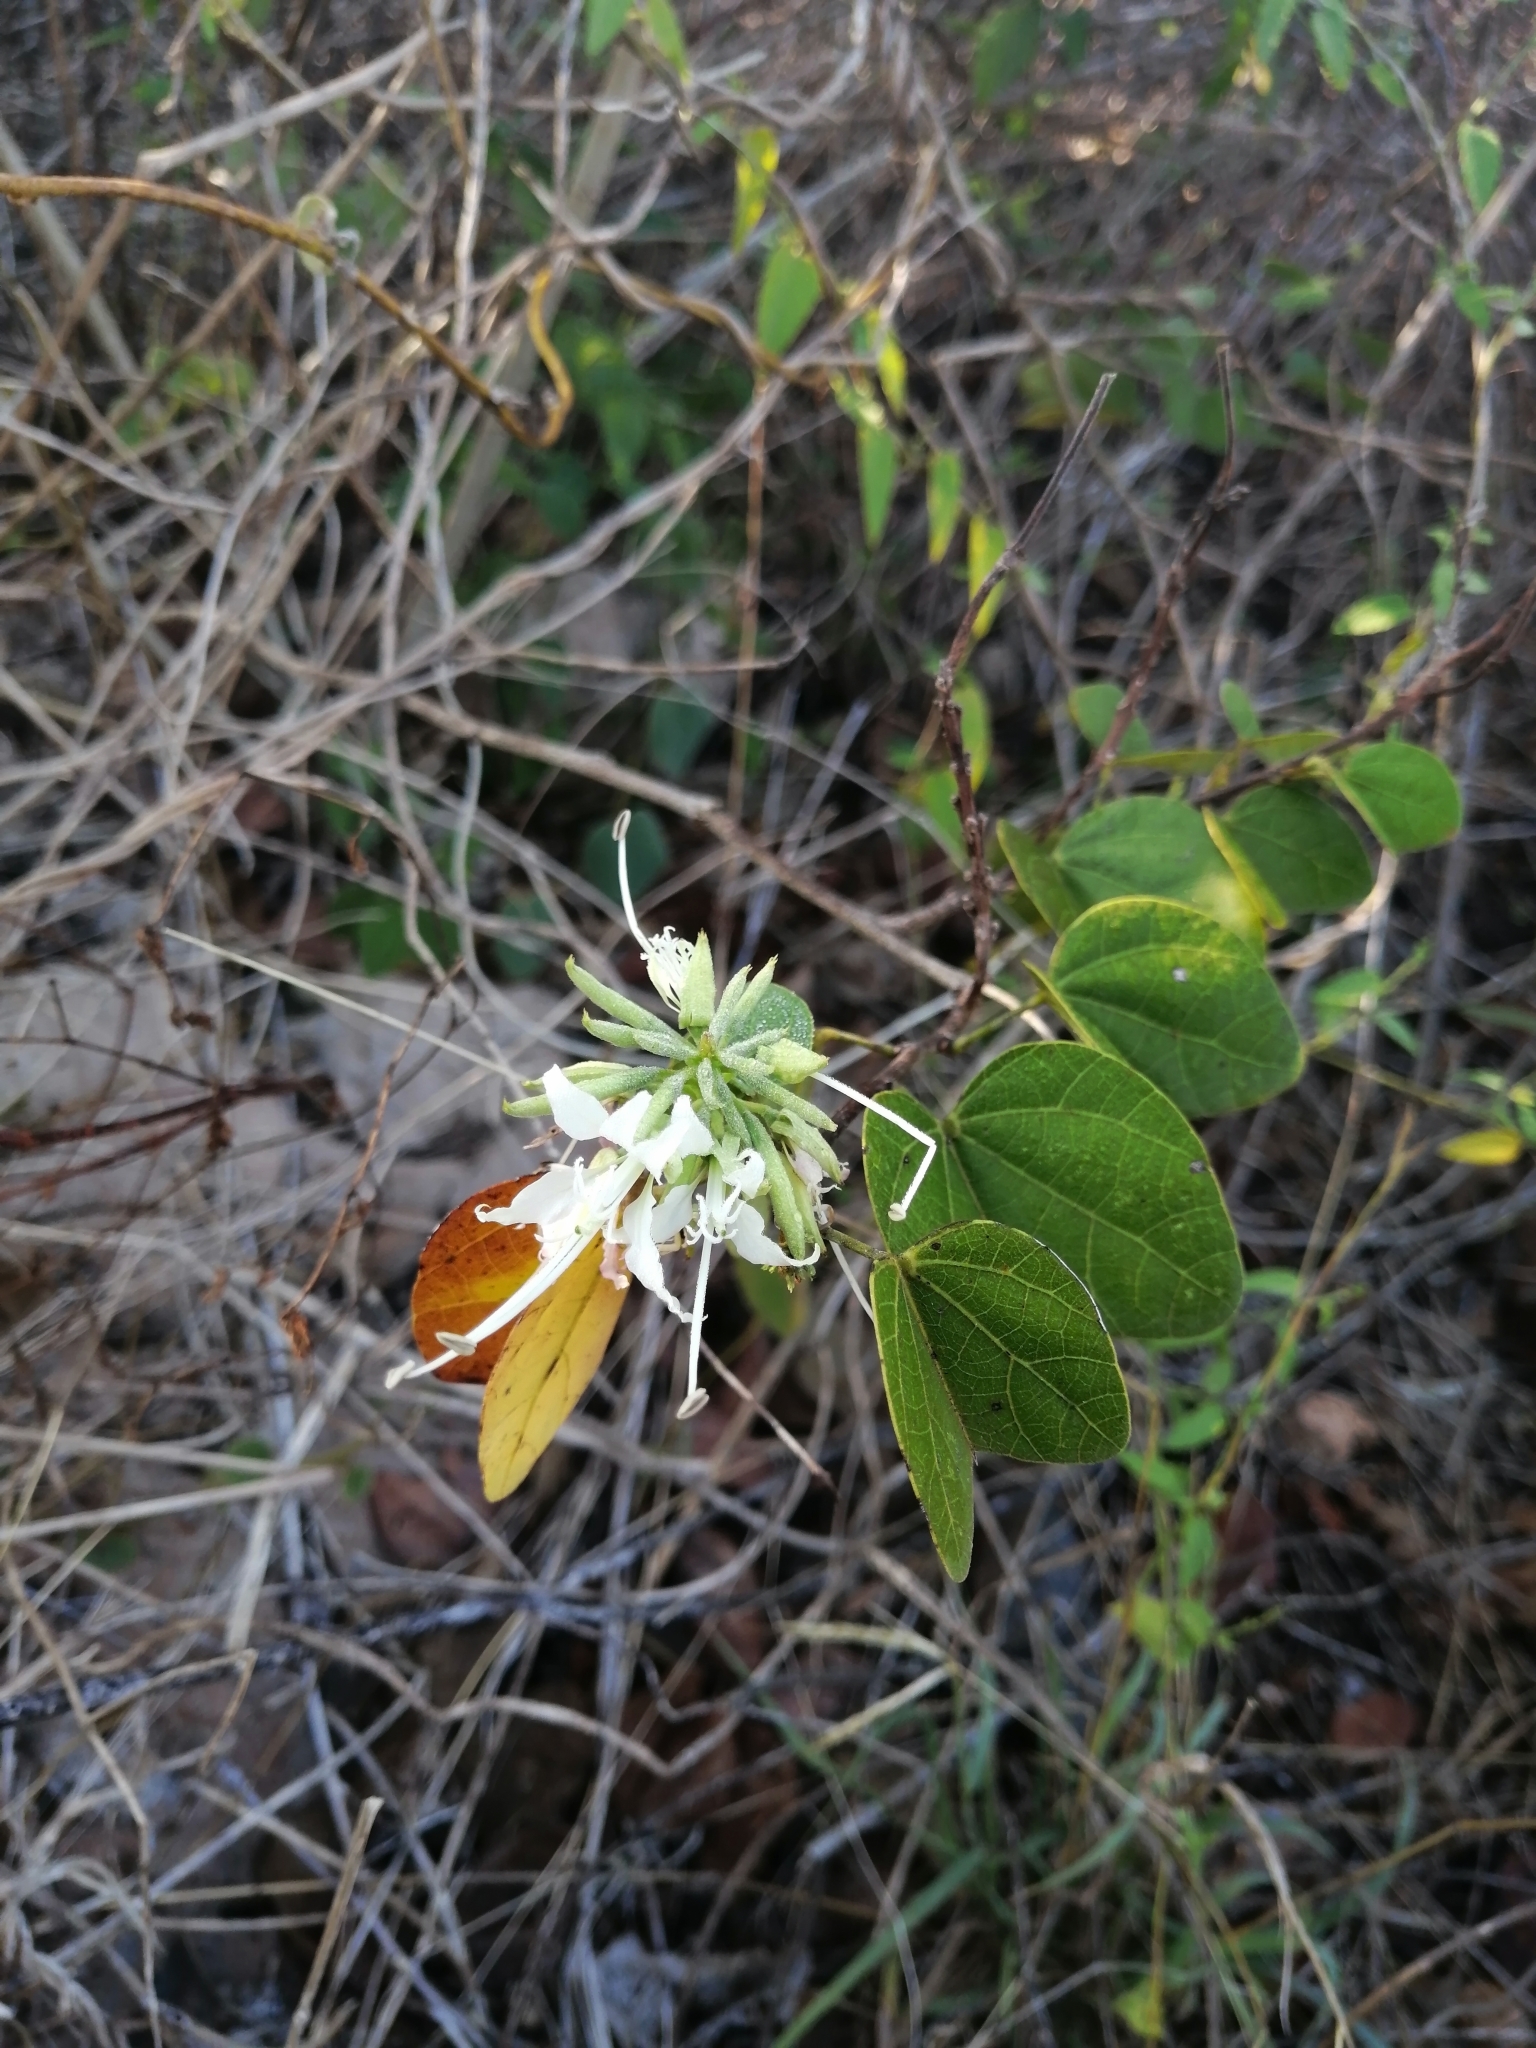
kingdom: Plantae
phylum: Tracheophyta
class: Magnoliopsida
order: Fabales
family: Fabaceae
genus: Bauhinia
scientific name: Bauhinia divaricata
